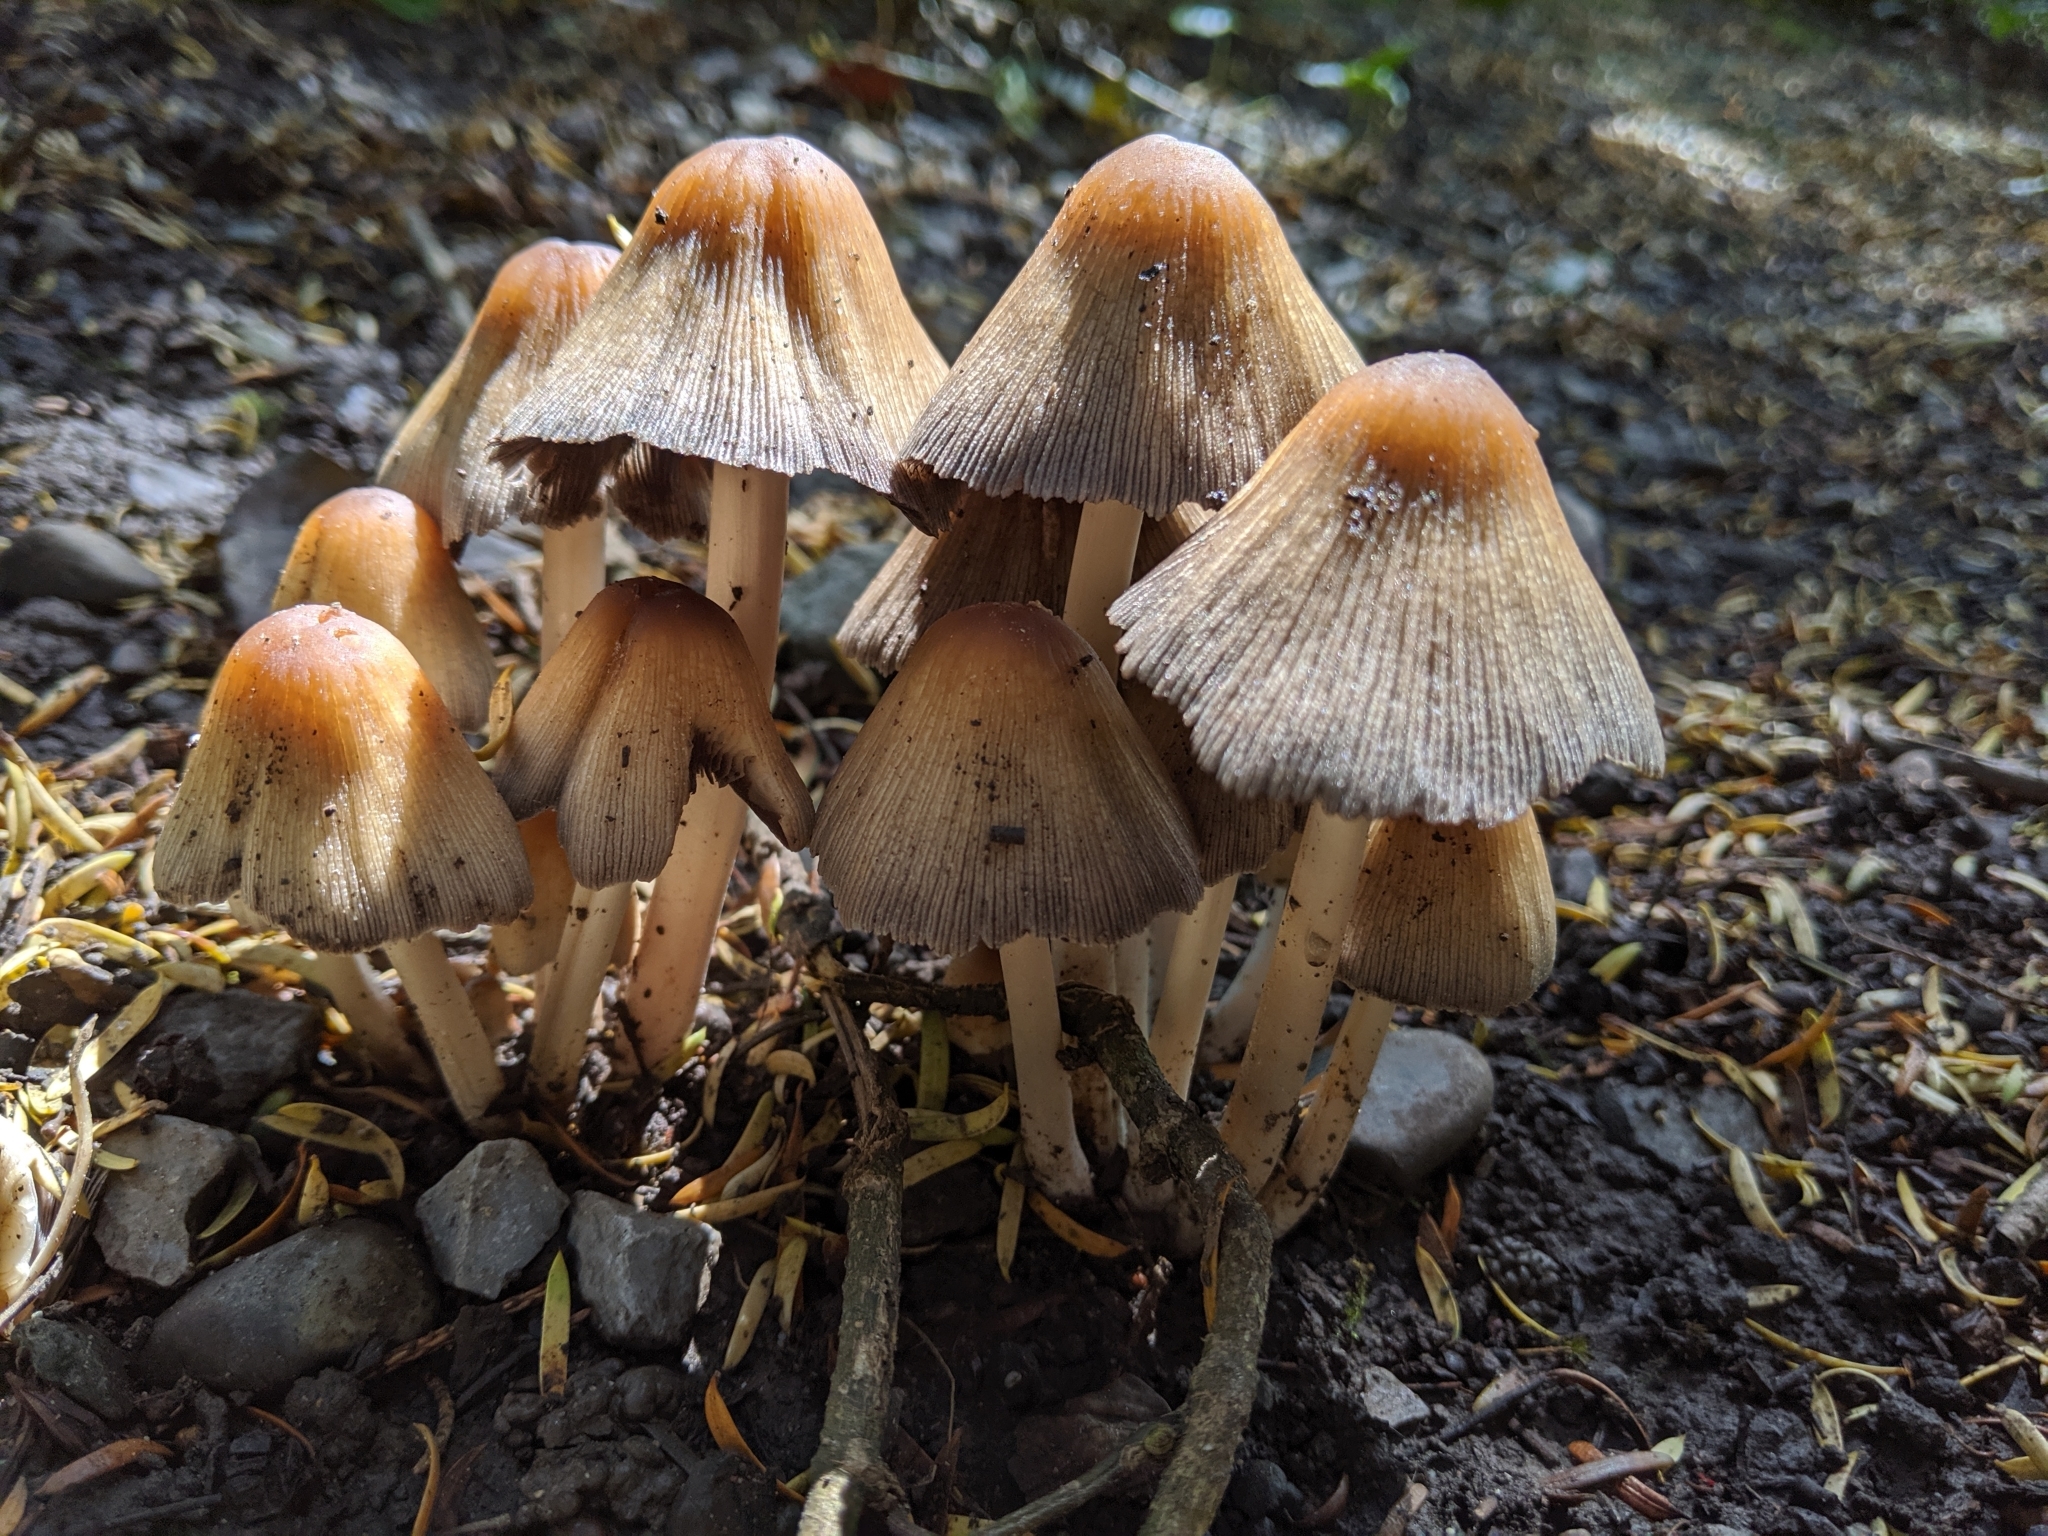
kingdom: Fungi
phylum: Basidiomycota
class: Agaricomycetes
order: Agaricales
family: Psathyrellaceae
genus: Coprinopsis
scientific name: Coprinopsis atramentaria
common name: Common ink-cap
